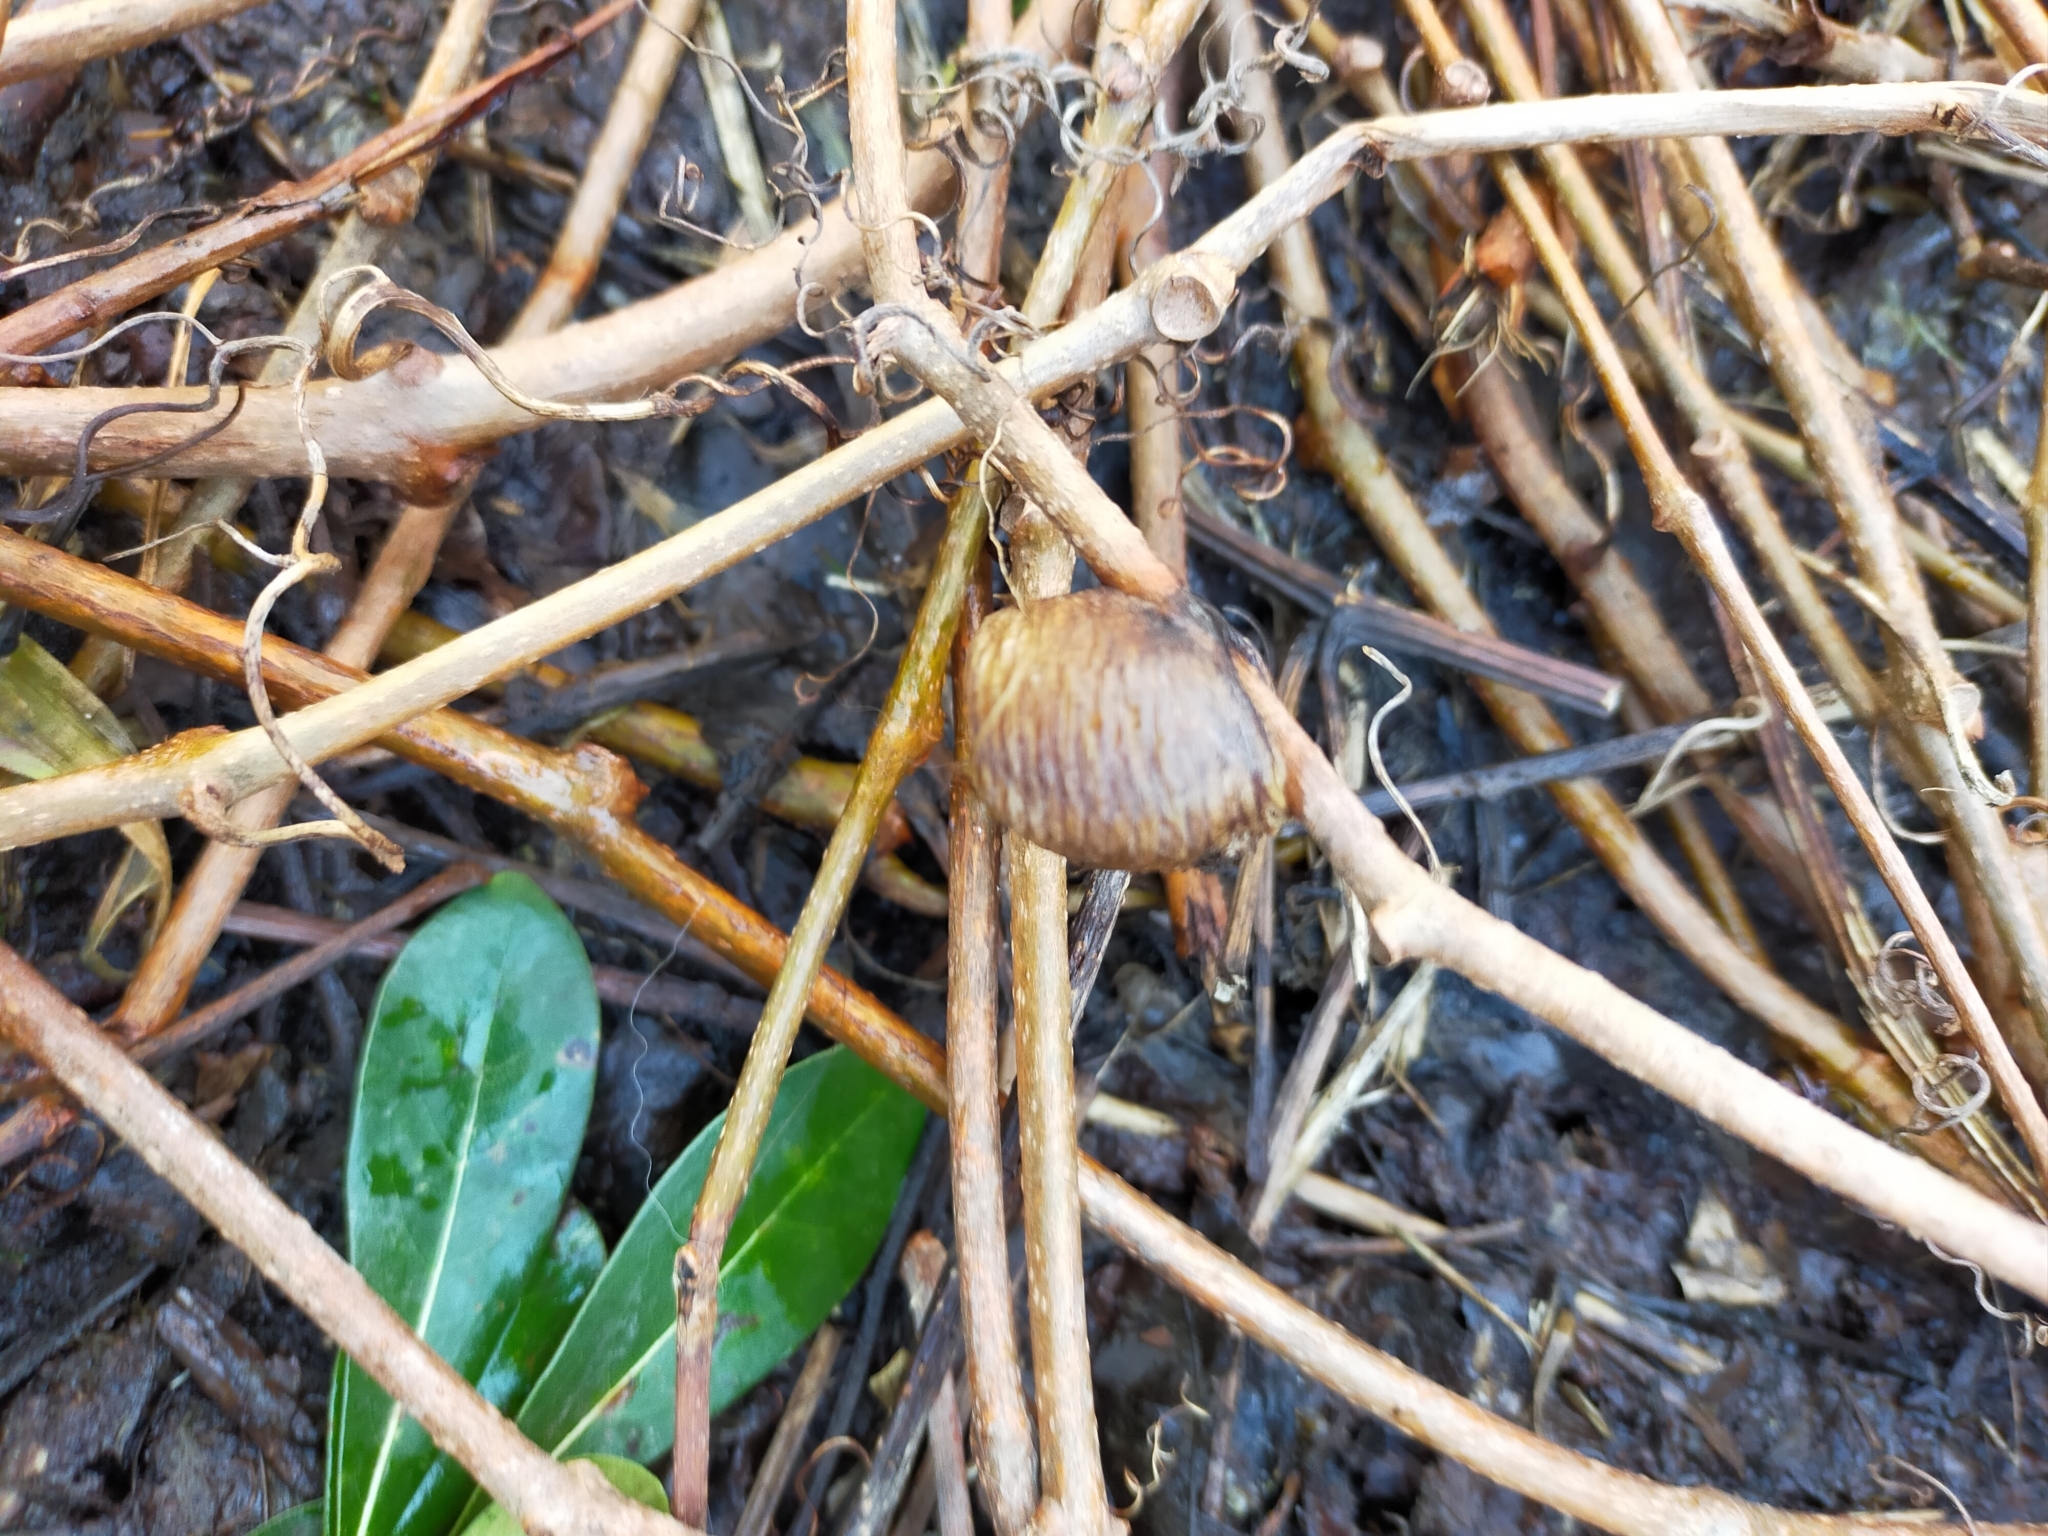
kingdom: Animalia
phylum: Arthropoda
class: Insecta
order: Mantodea
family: Mantidae
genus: Hierodula
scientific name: Hierodula transcaucasica
